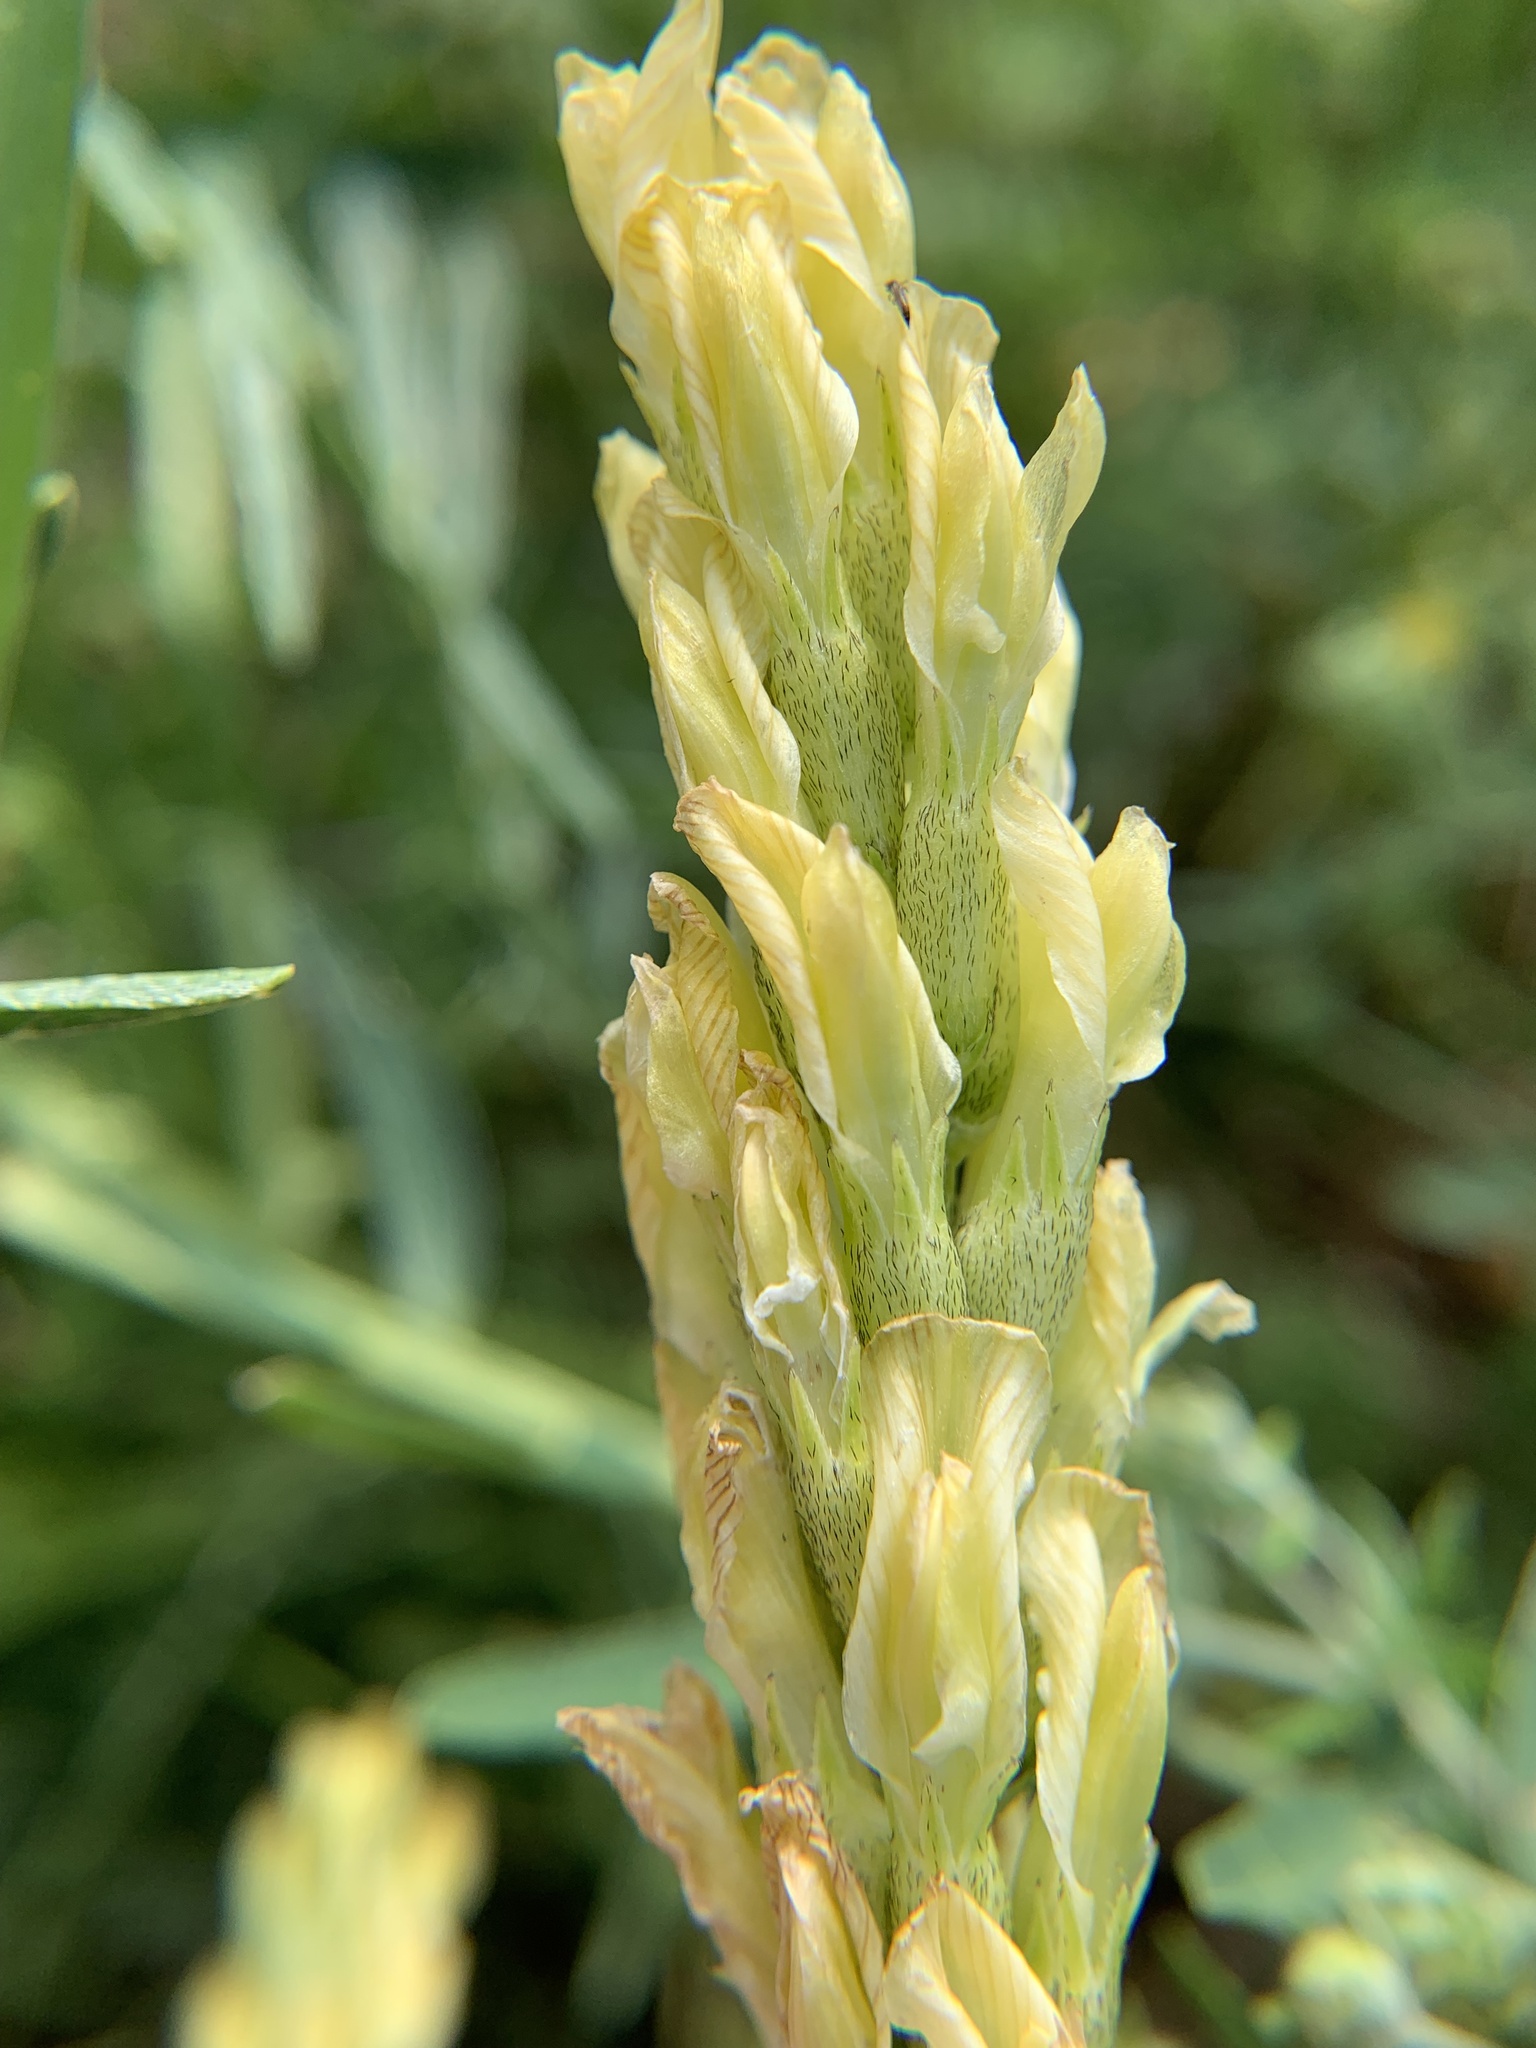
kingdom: Plantae
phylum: Tracheophyta
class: Magnoliopsida
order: Fabales
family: Fabaceae
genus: Astragalus
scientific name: Astragalus asper
